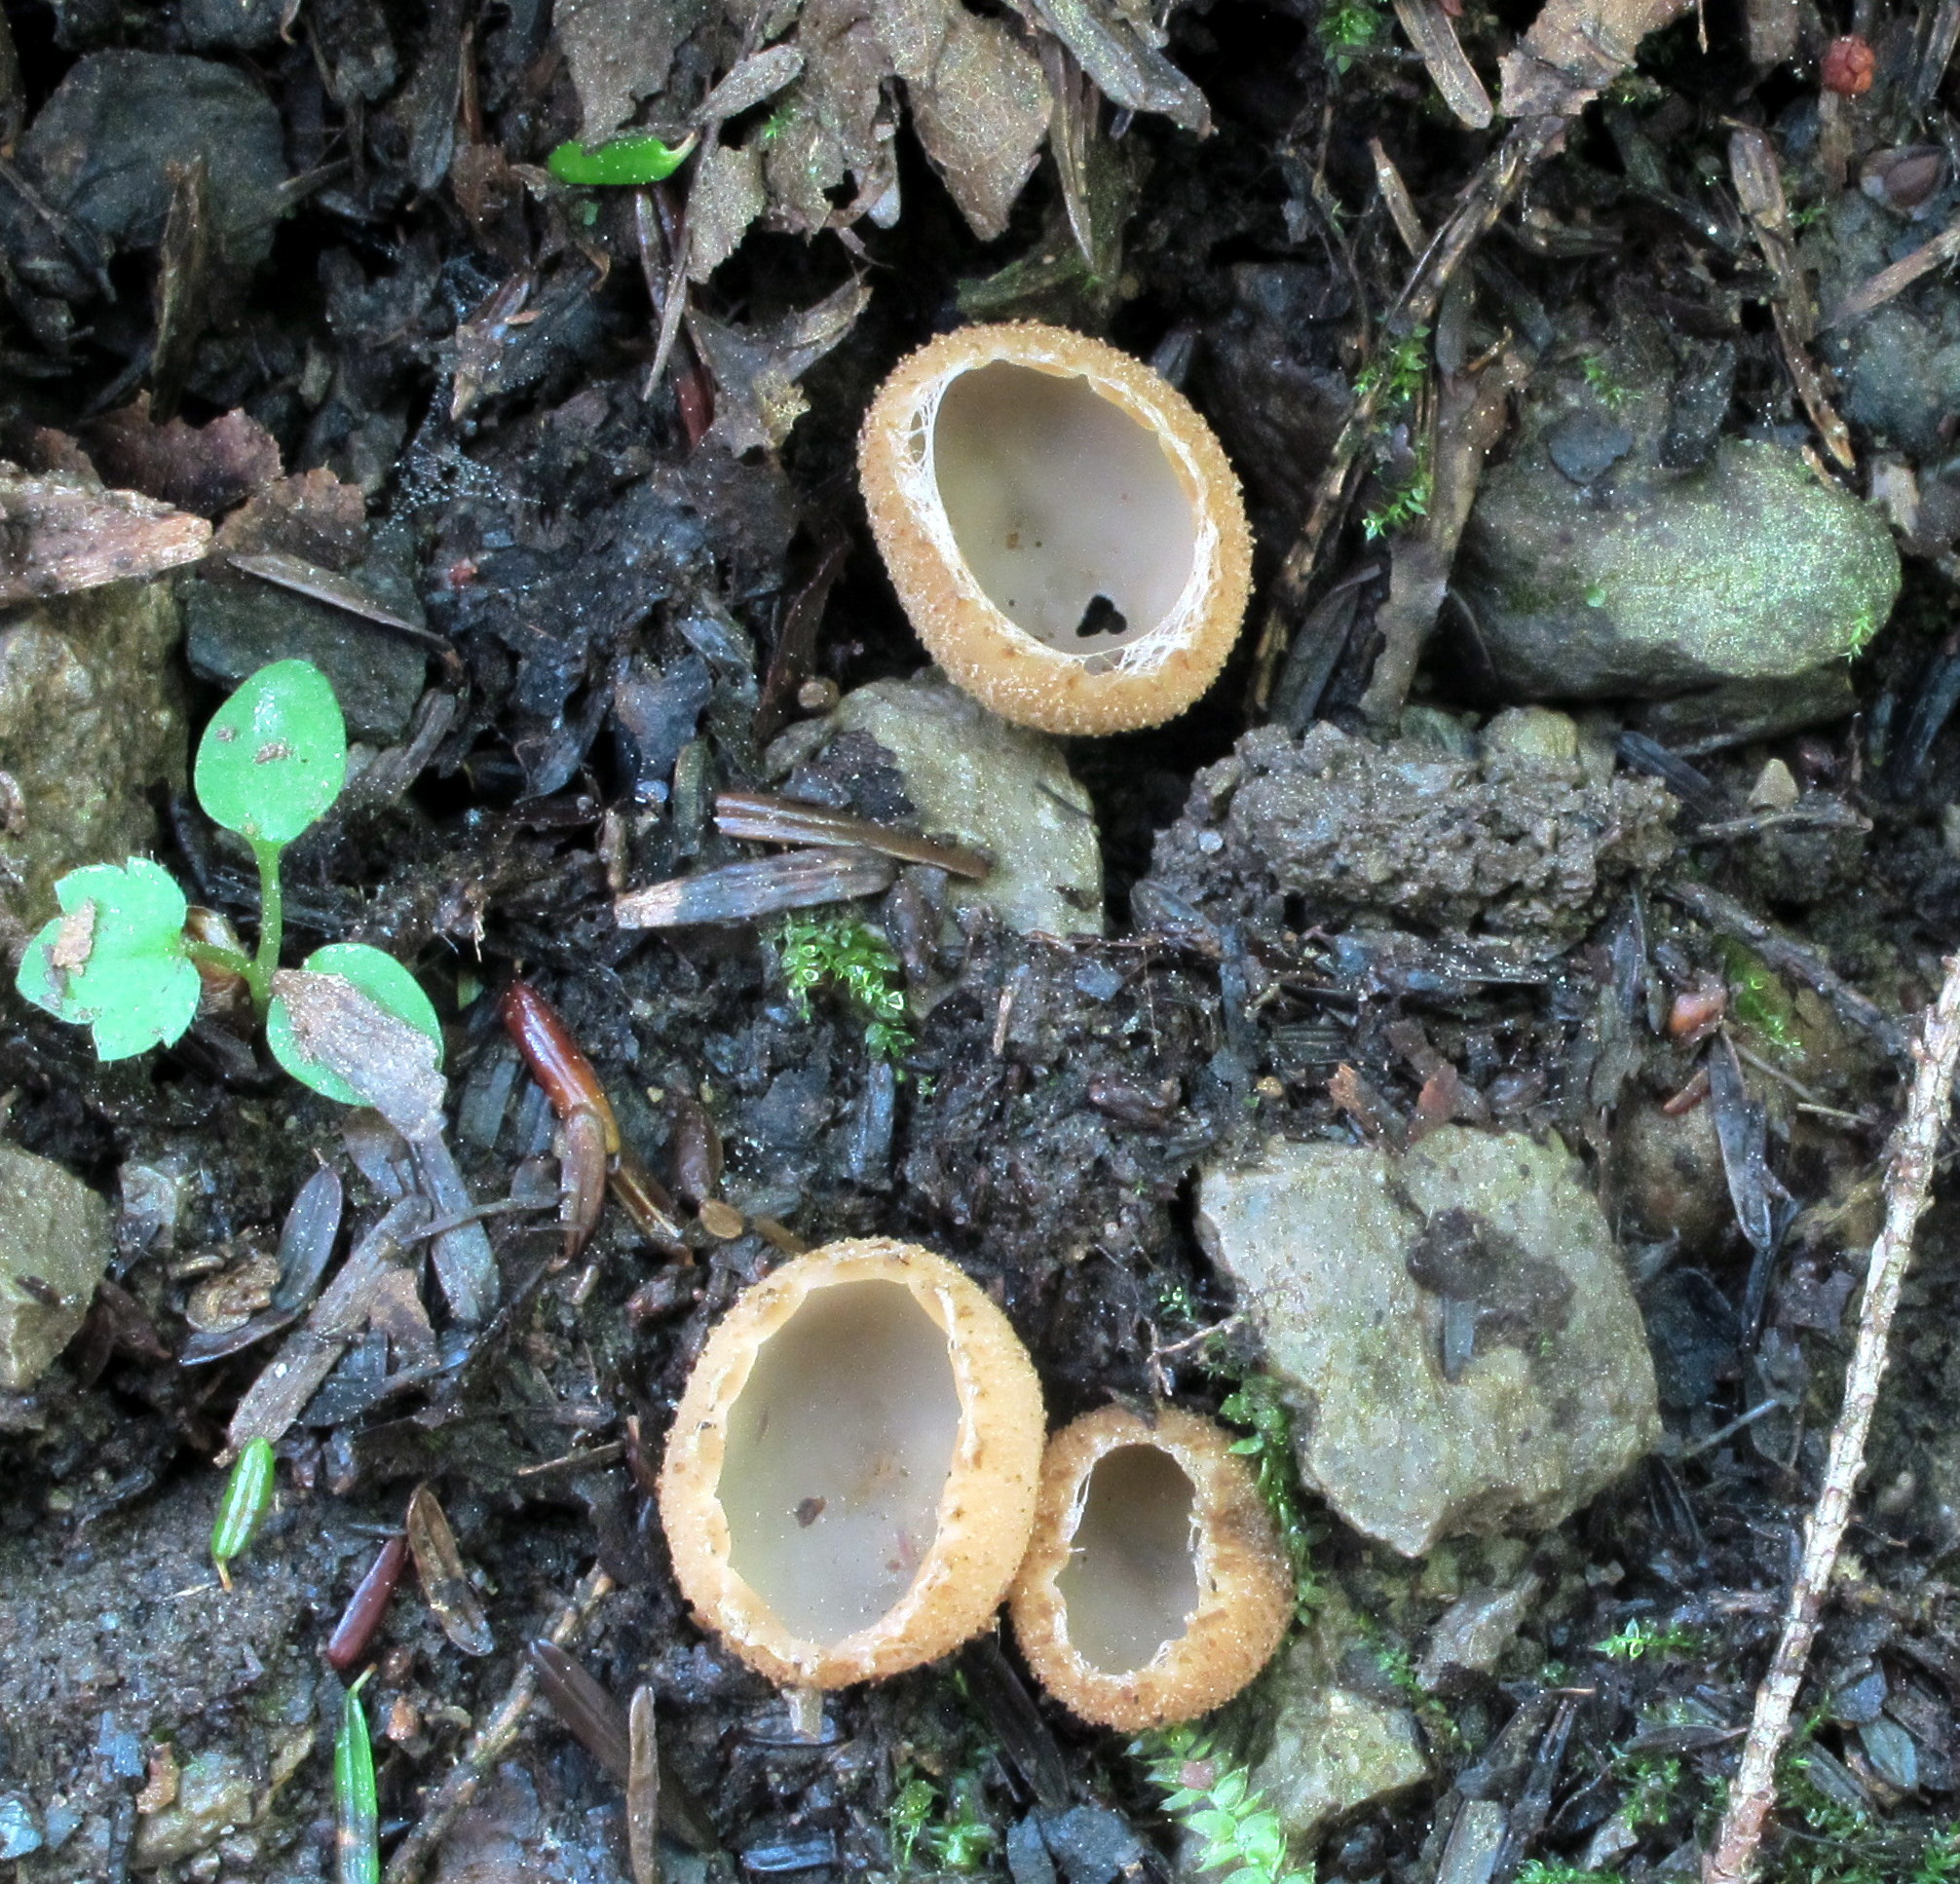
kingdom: Fungi
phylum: Ascomycota
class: Pezizomycetes
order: Pezizales
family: Tarzettaceae
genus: Tarzetta
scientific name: Tarzetta cupularis
